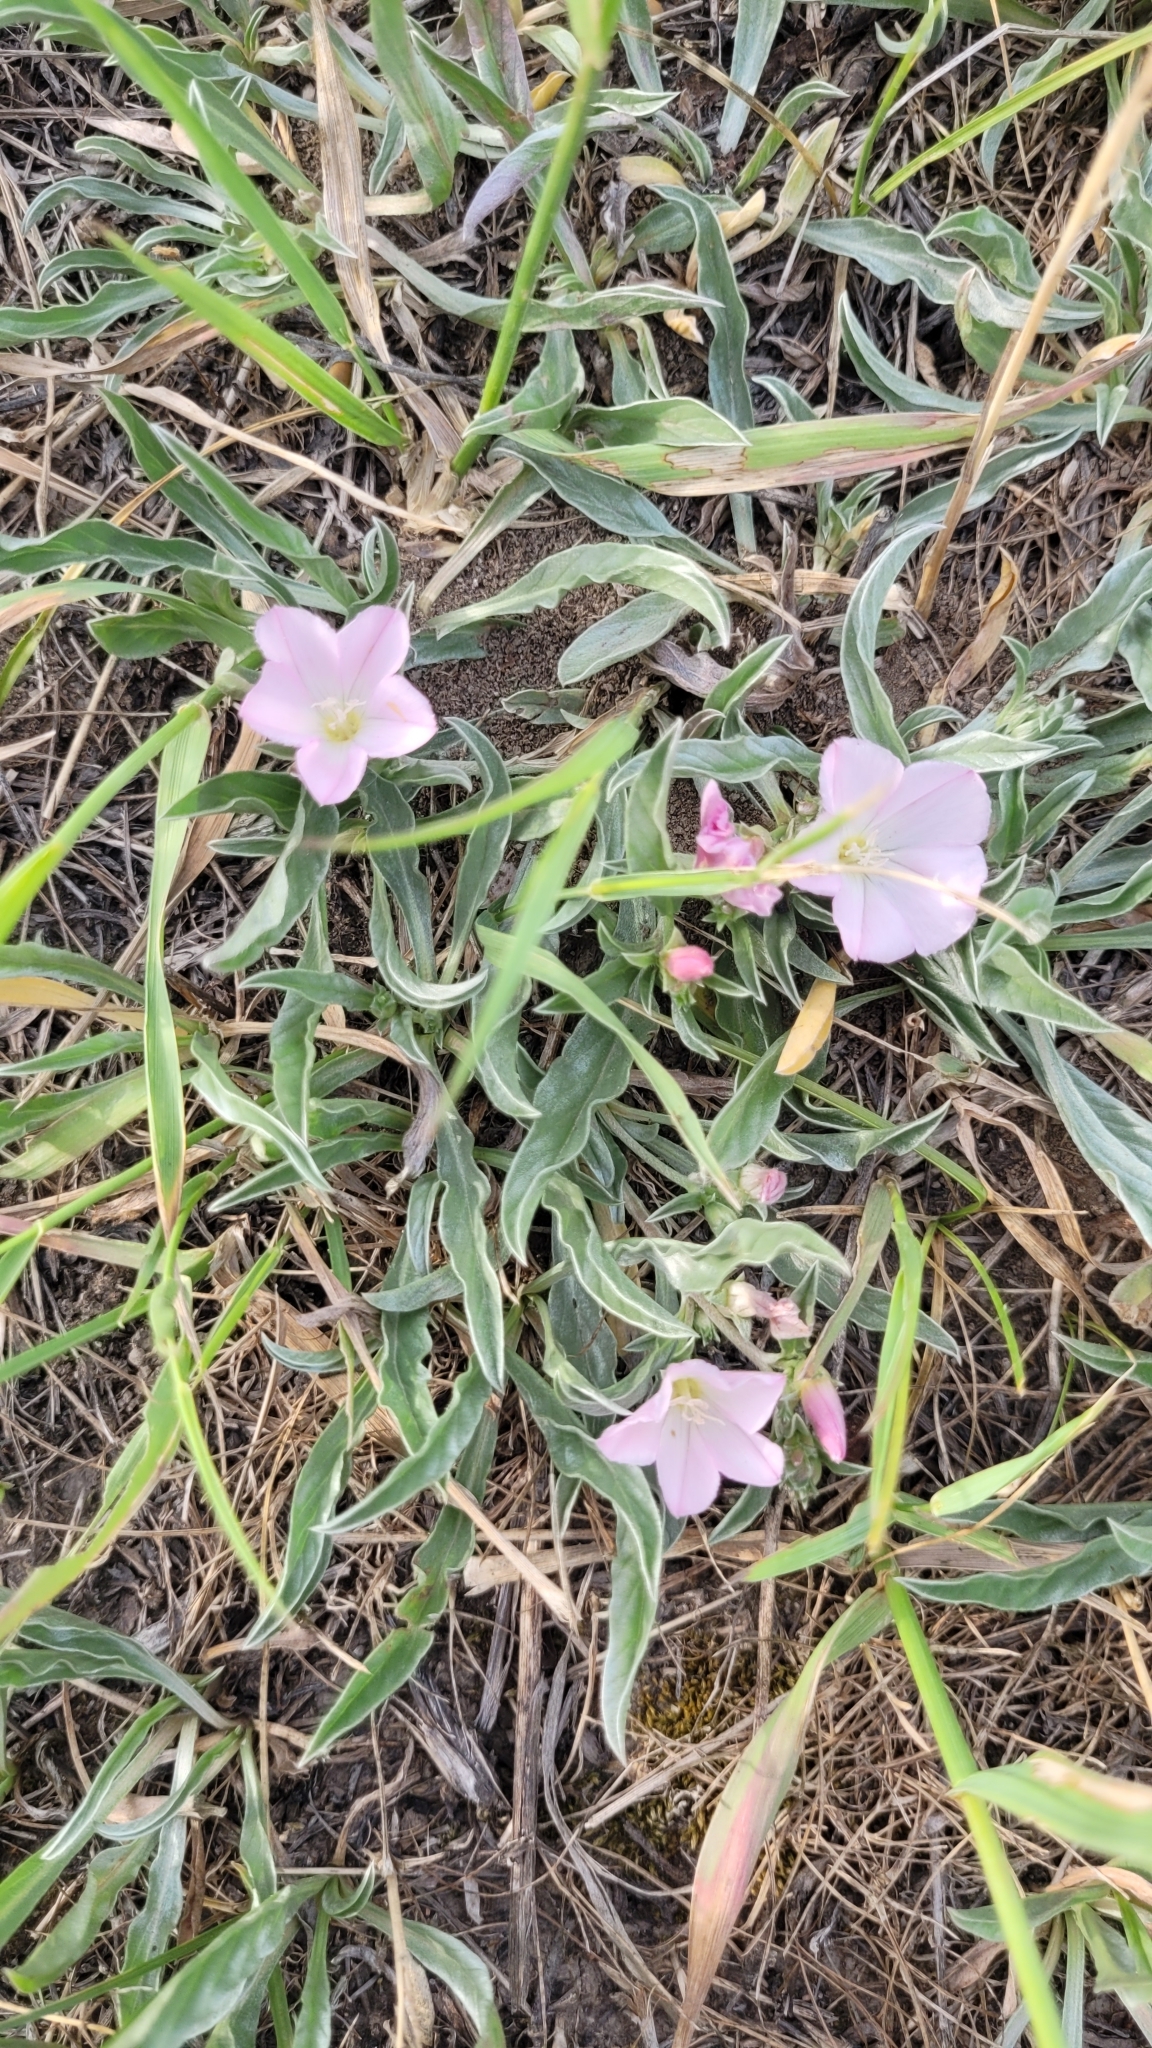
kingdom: Plantae
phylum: Tracheophyta
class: Magnoliopsida
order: Solanales
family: Convolvulaceae
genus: Convolvulus
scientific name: Convolvulus lineatus
